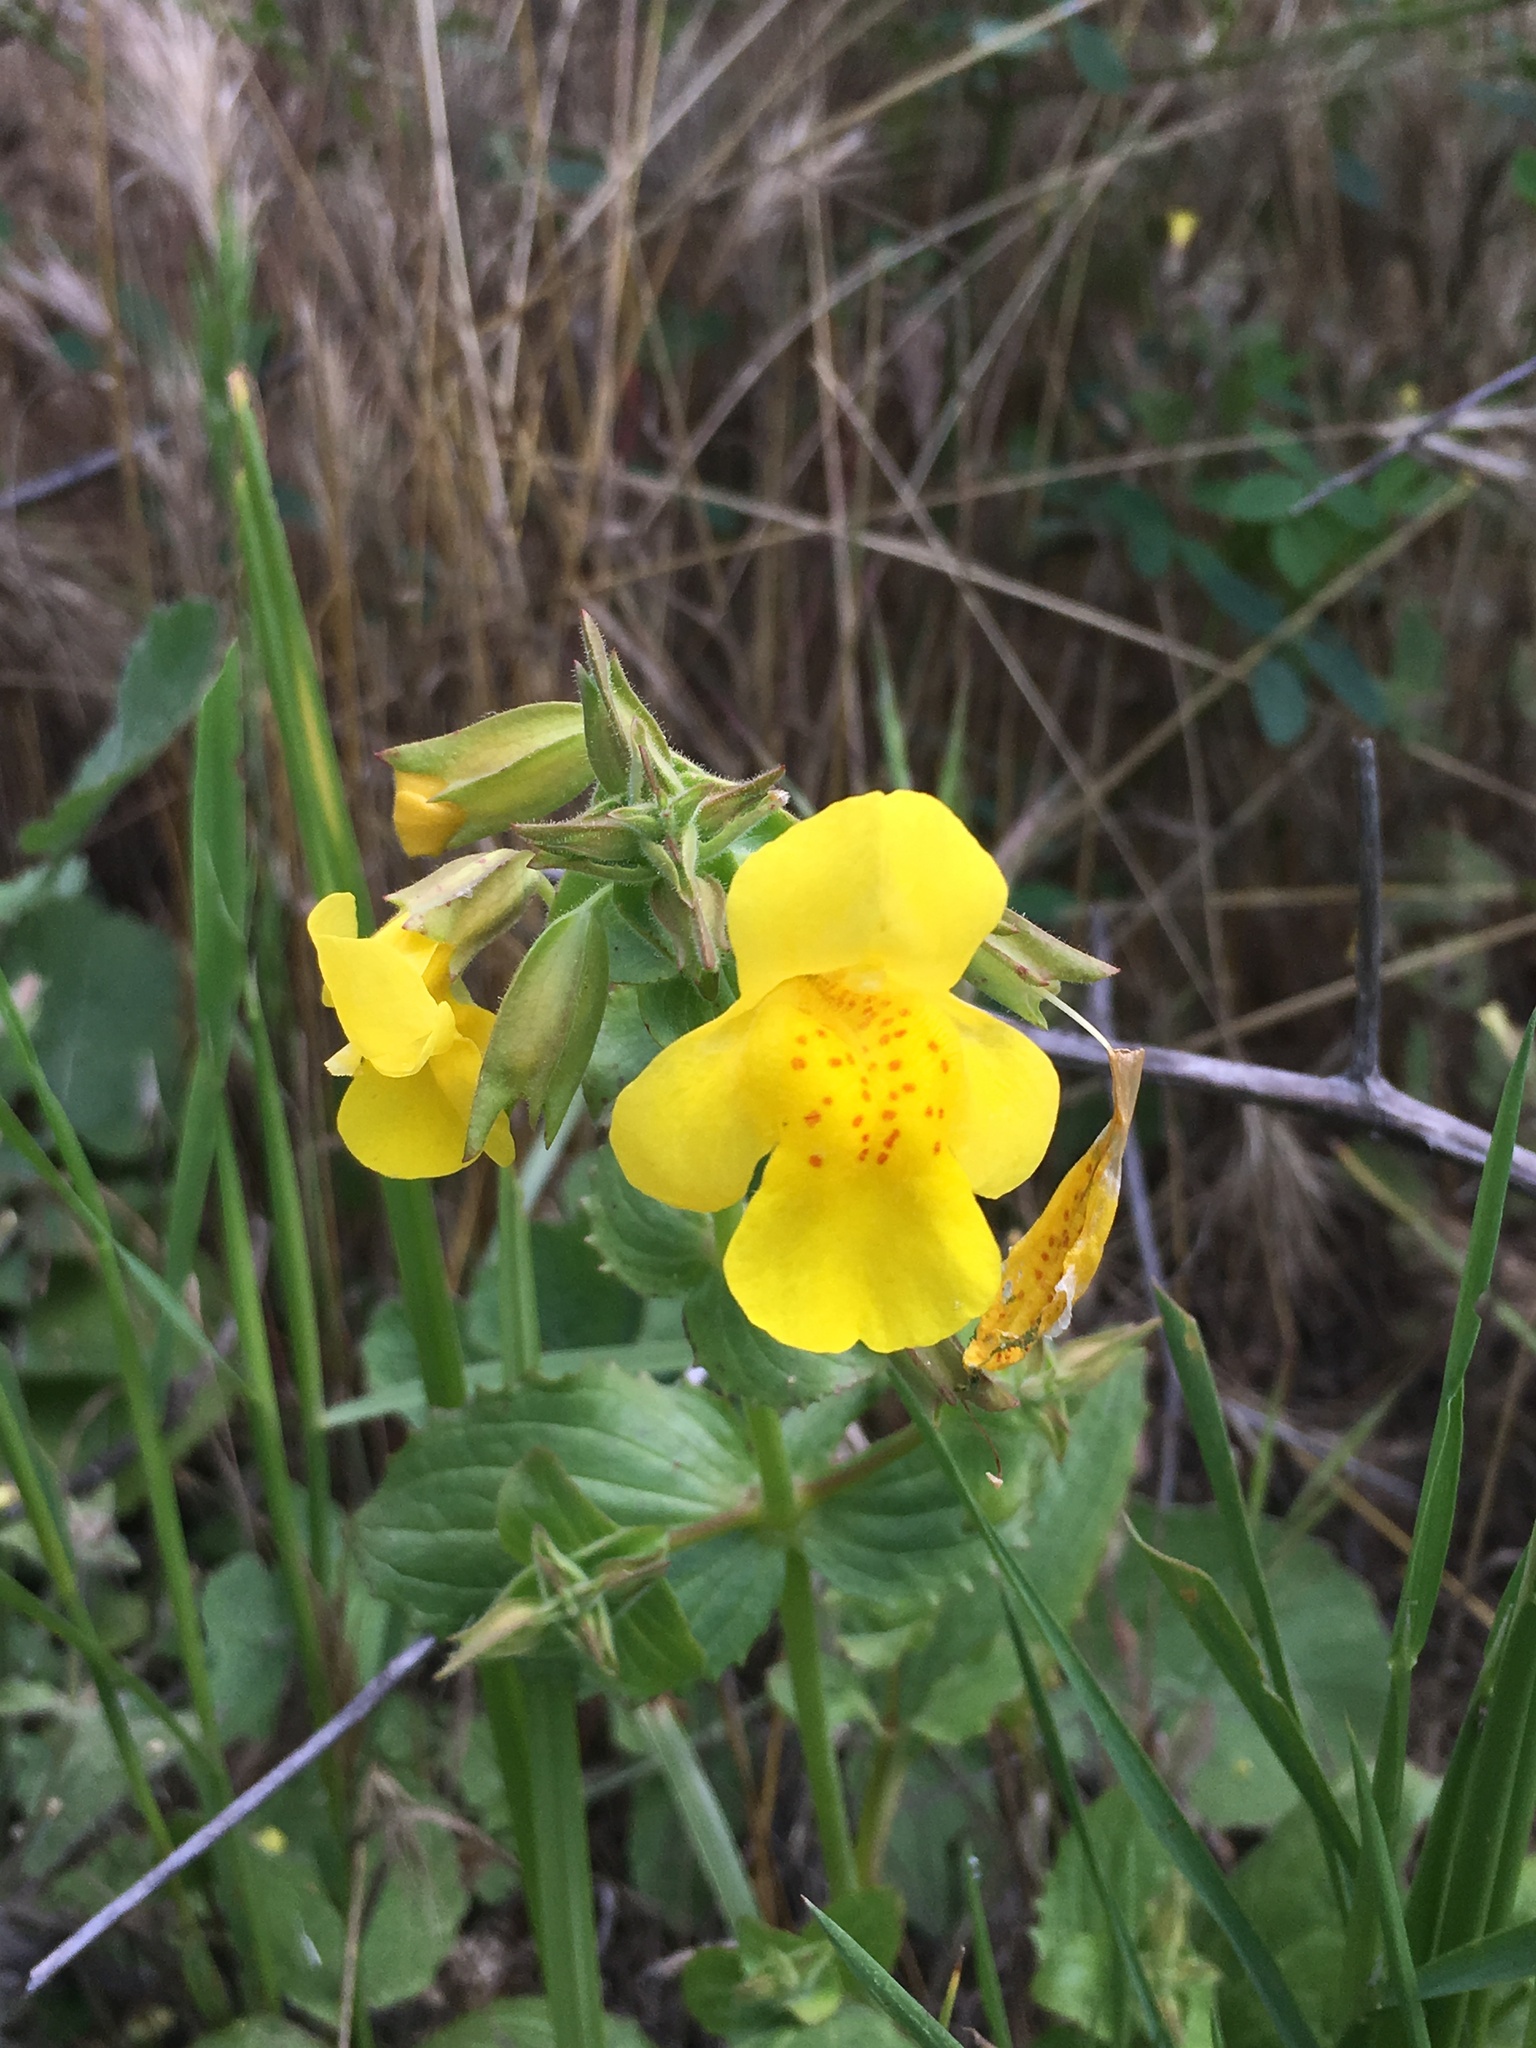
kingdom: Plantae
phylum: Tracheophyta
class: Magnoliopsida
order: Lamiales
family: Phrymaceae
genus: Erythranthe
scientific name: Erythranthe guttata
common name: Monkeyflower
